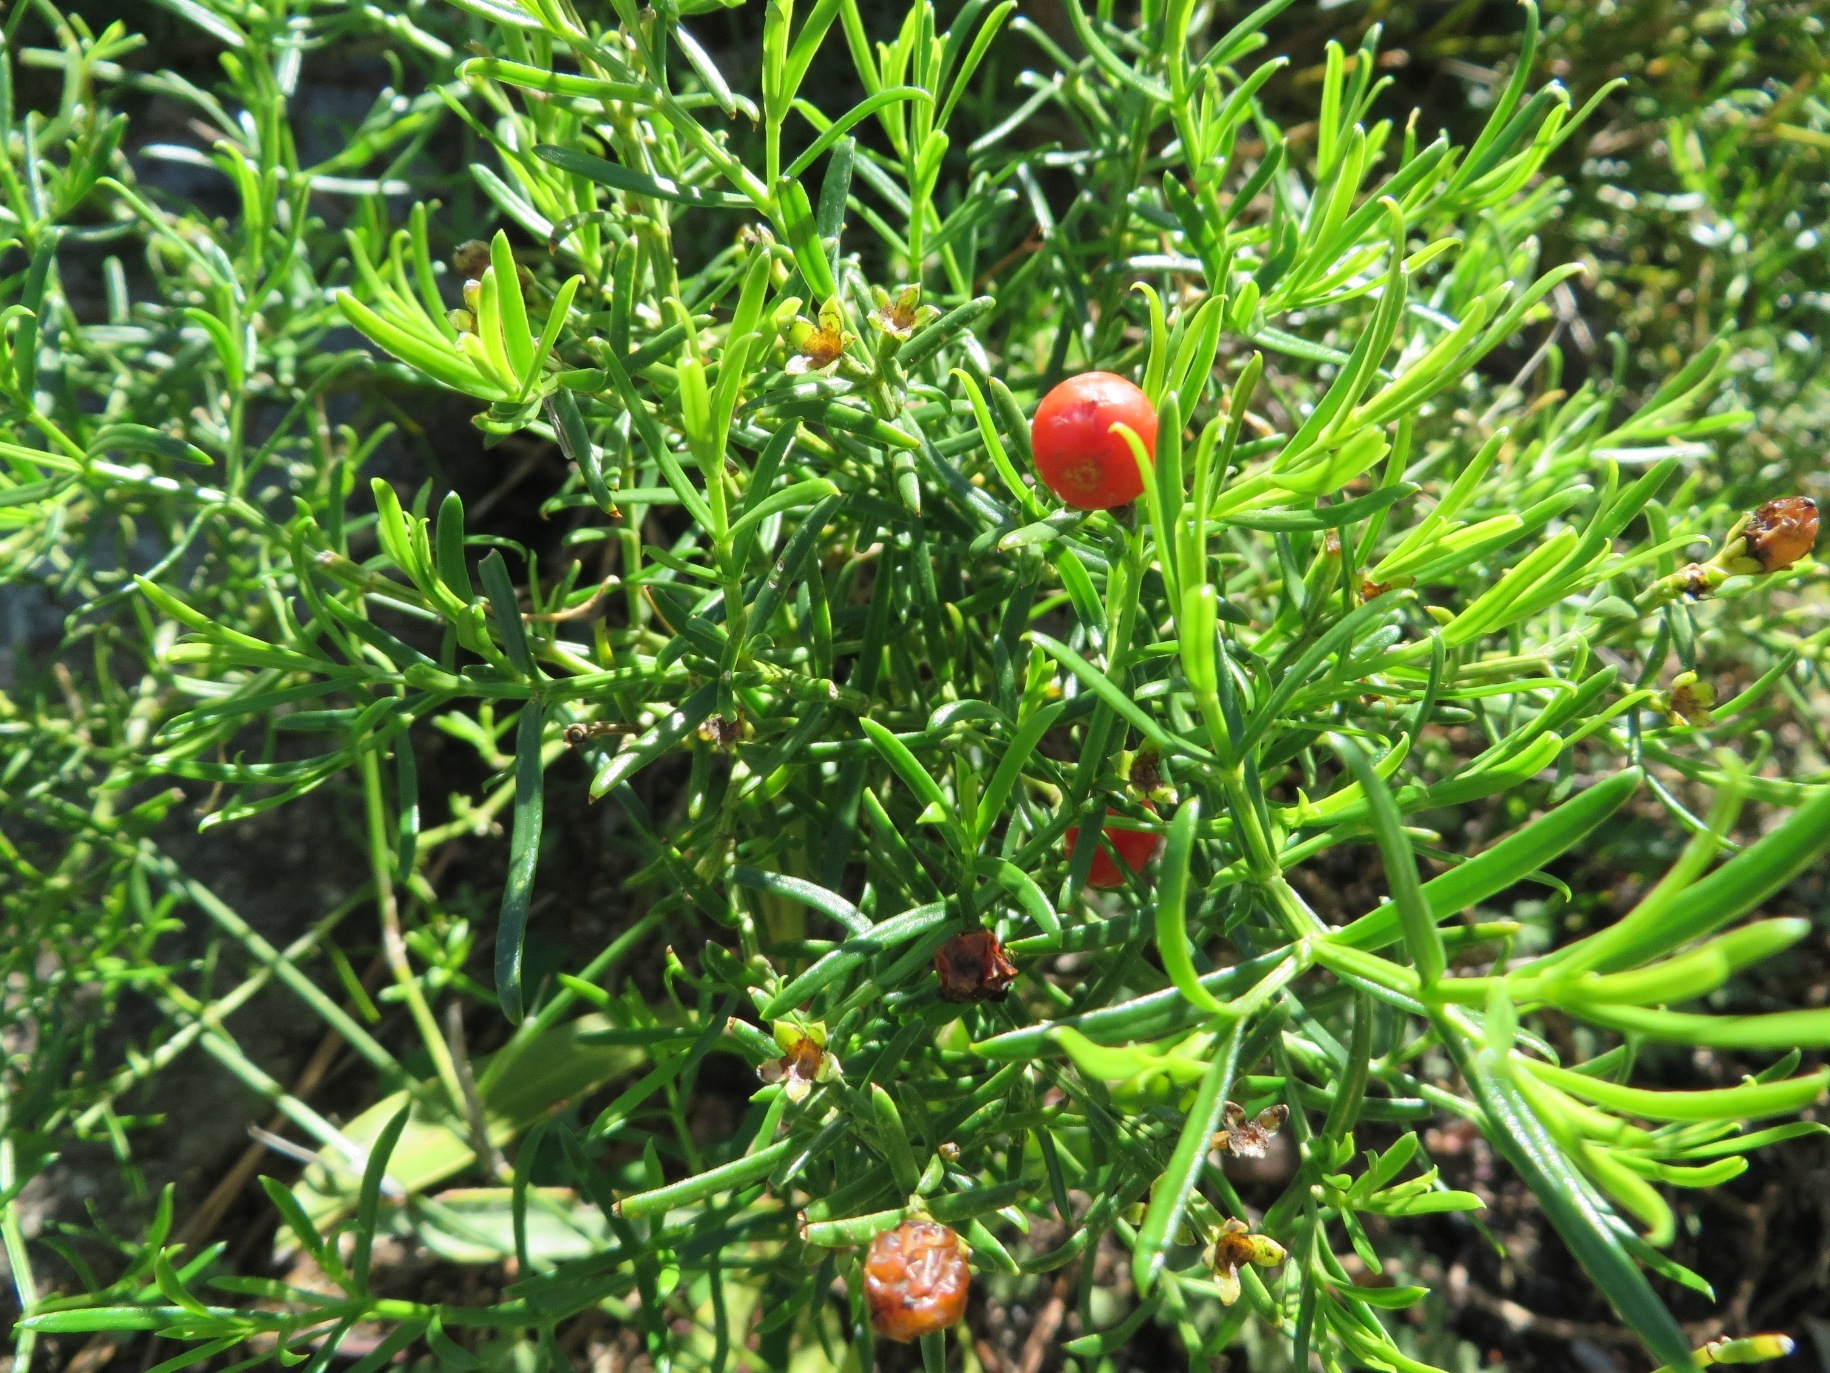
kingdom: Plantae
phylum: Tracheophyta
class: Magnoliopsida
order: Gentianales
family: Gentianaceae
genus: Chironia
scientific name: Chironia baccifera
